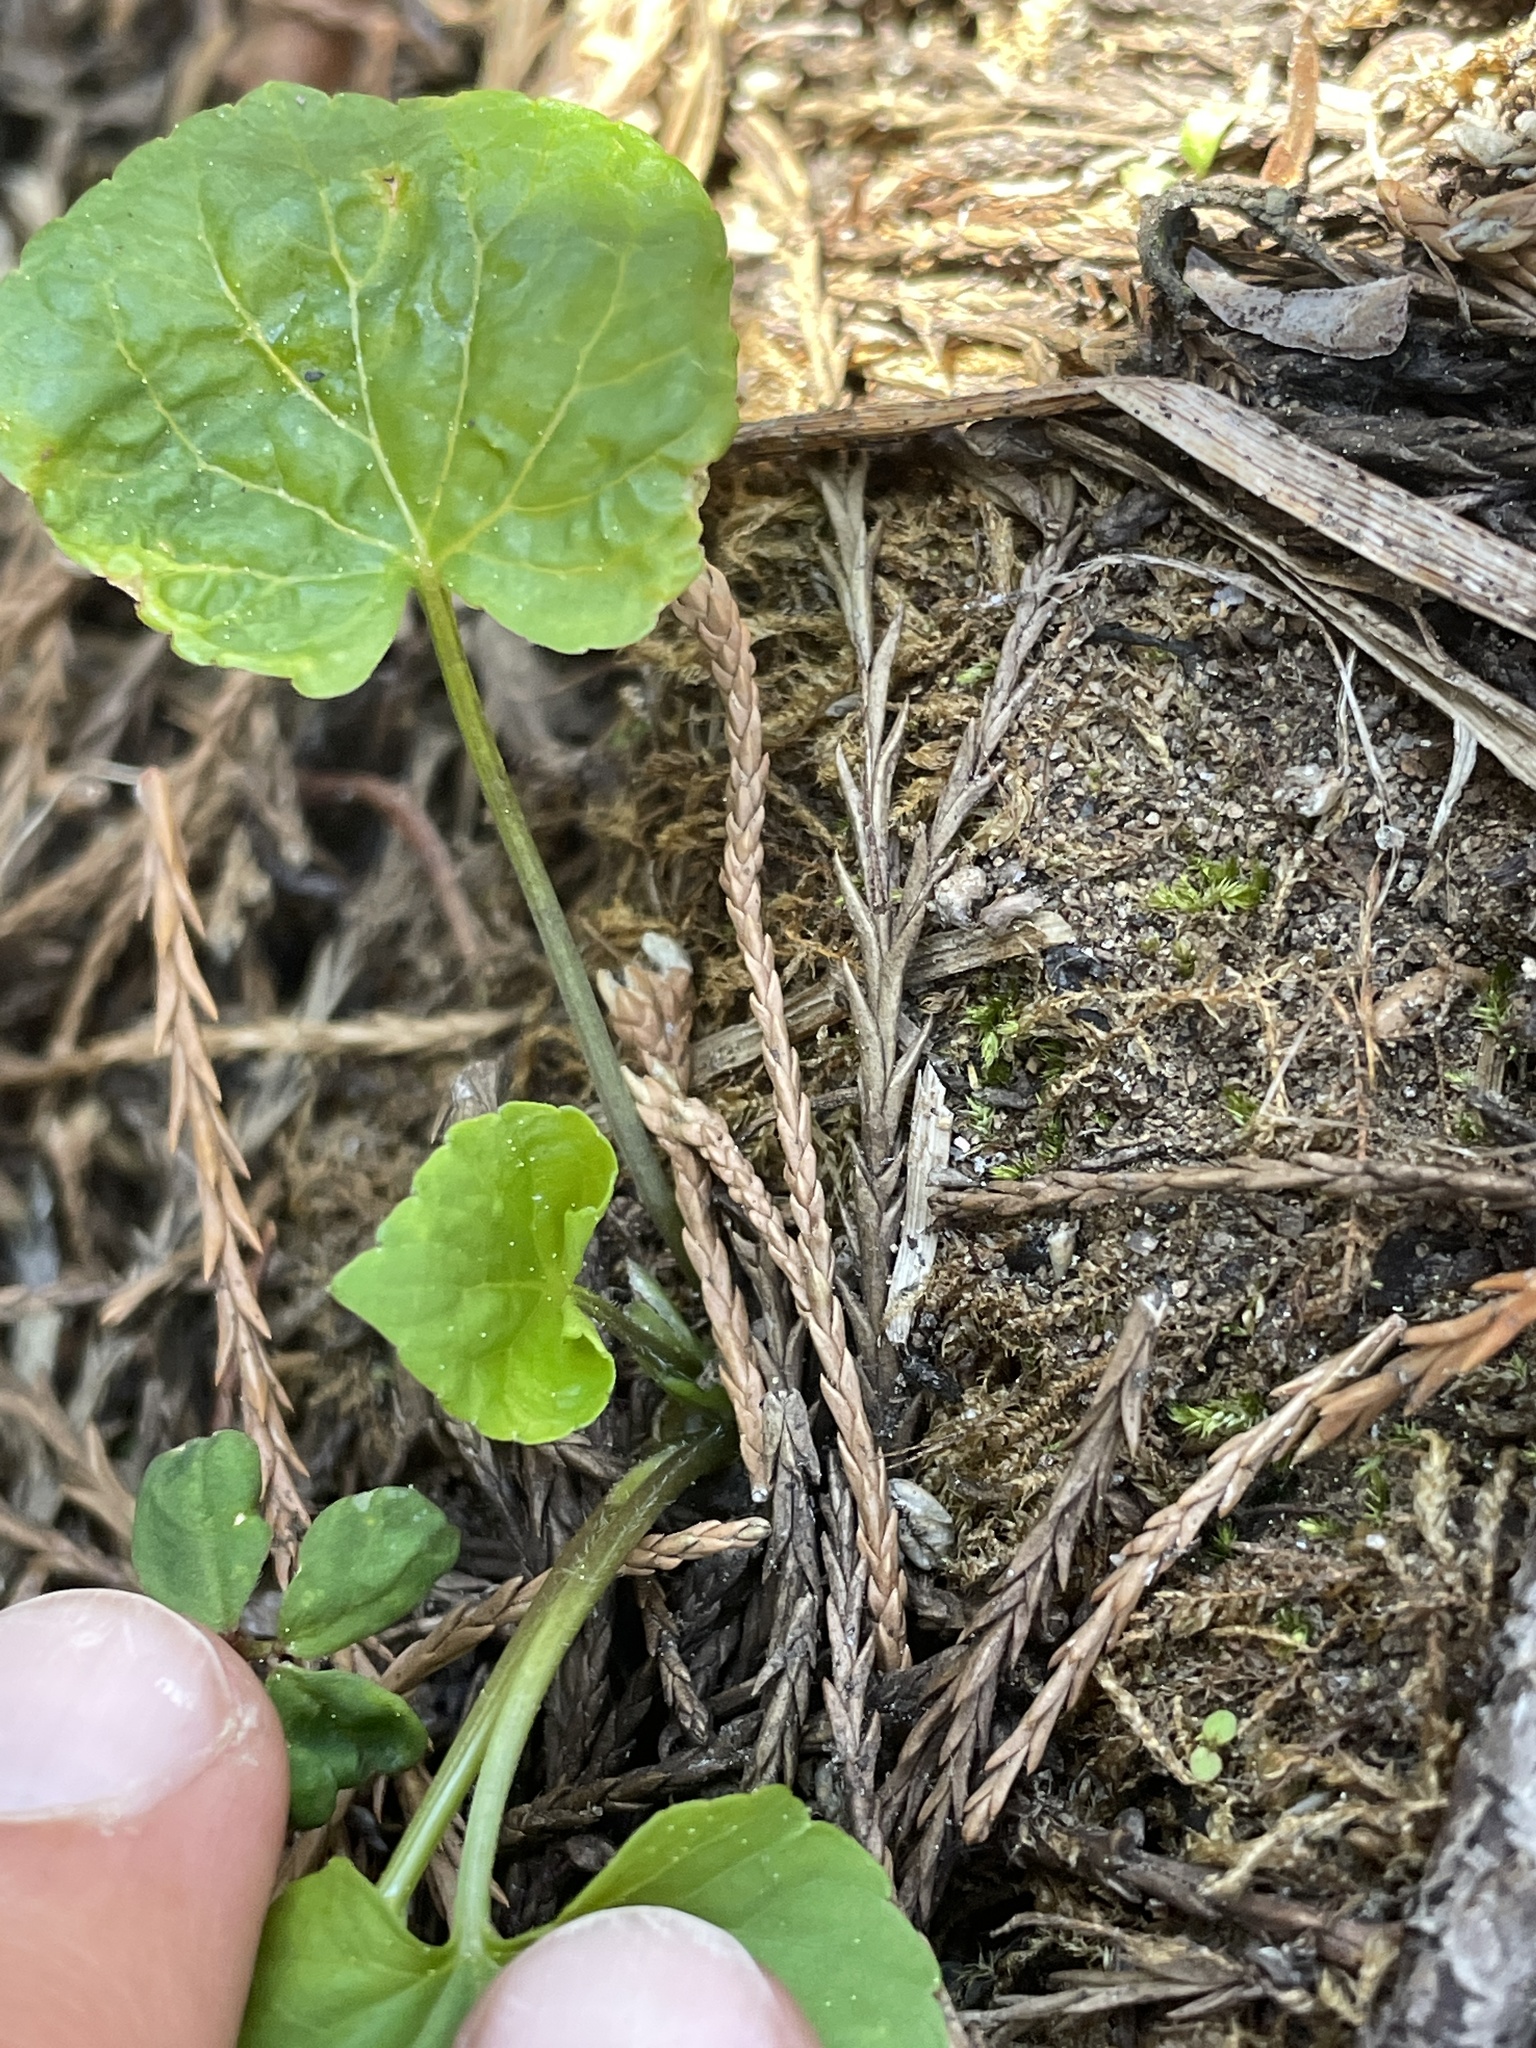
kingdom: Plantae
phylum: Tracheophyta
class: Magnoliopsida
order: Malpighiales
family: Violaceae
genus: Viola
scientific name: Viola glabella
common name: Stream violet
